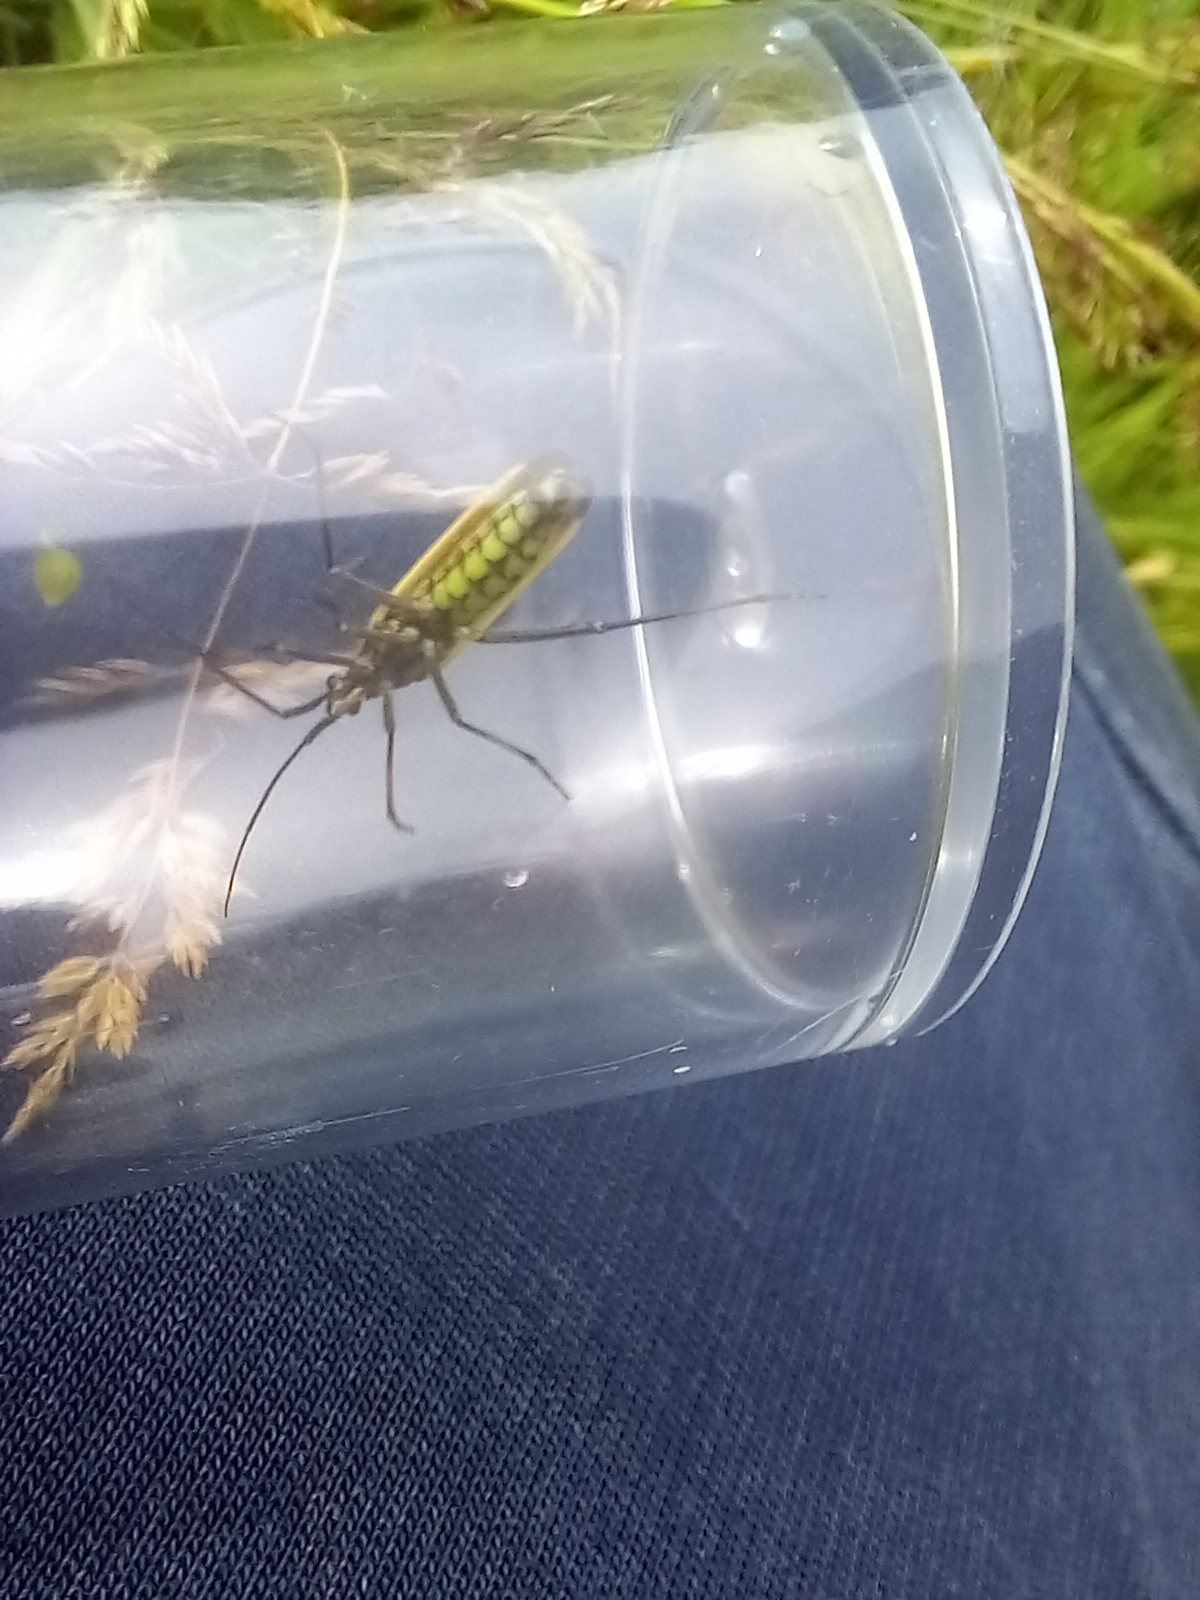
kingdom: Animalia
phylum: Arthropoda
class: Insecta
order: Hemiptera
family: Miridae
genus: Leptopterna
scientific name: Leptopterna dolabrata
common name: Meadow plant bug
